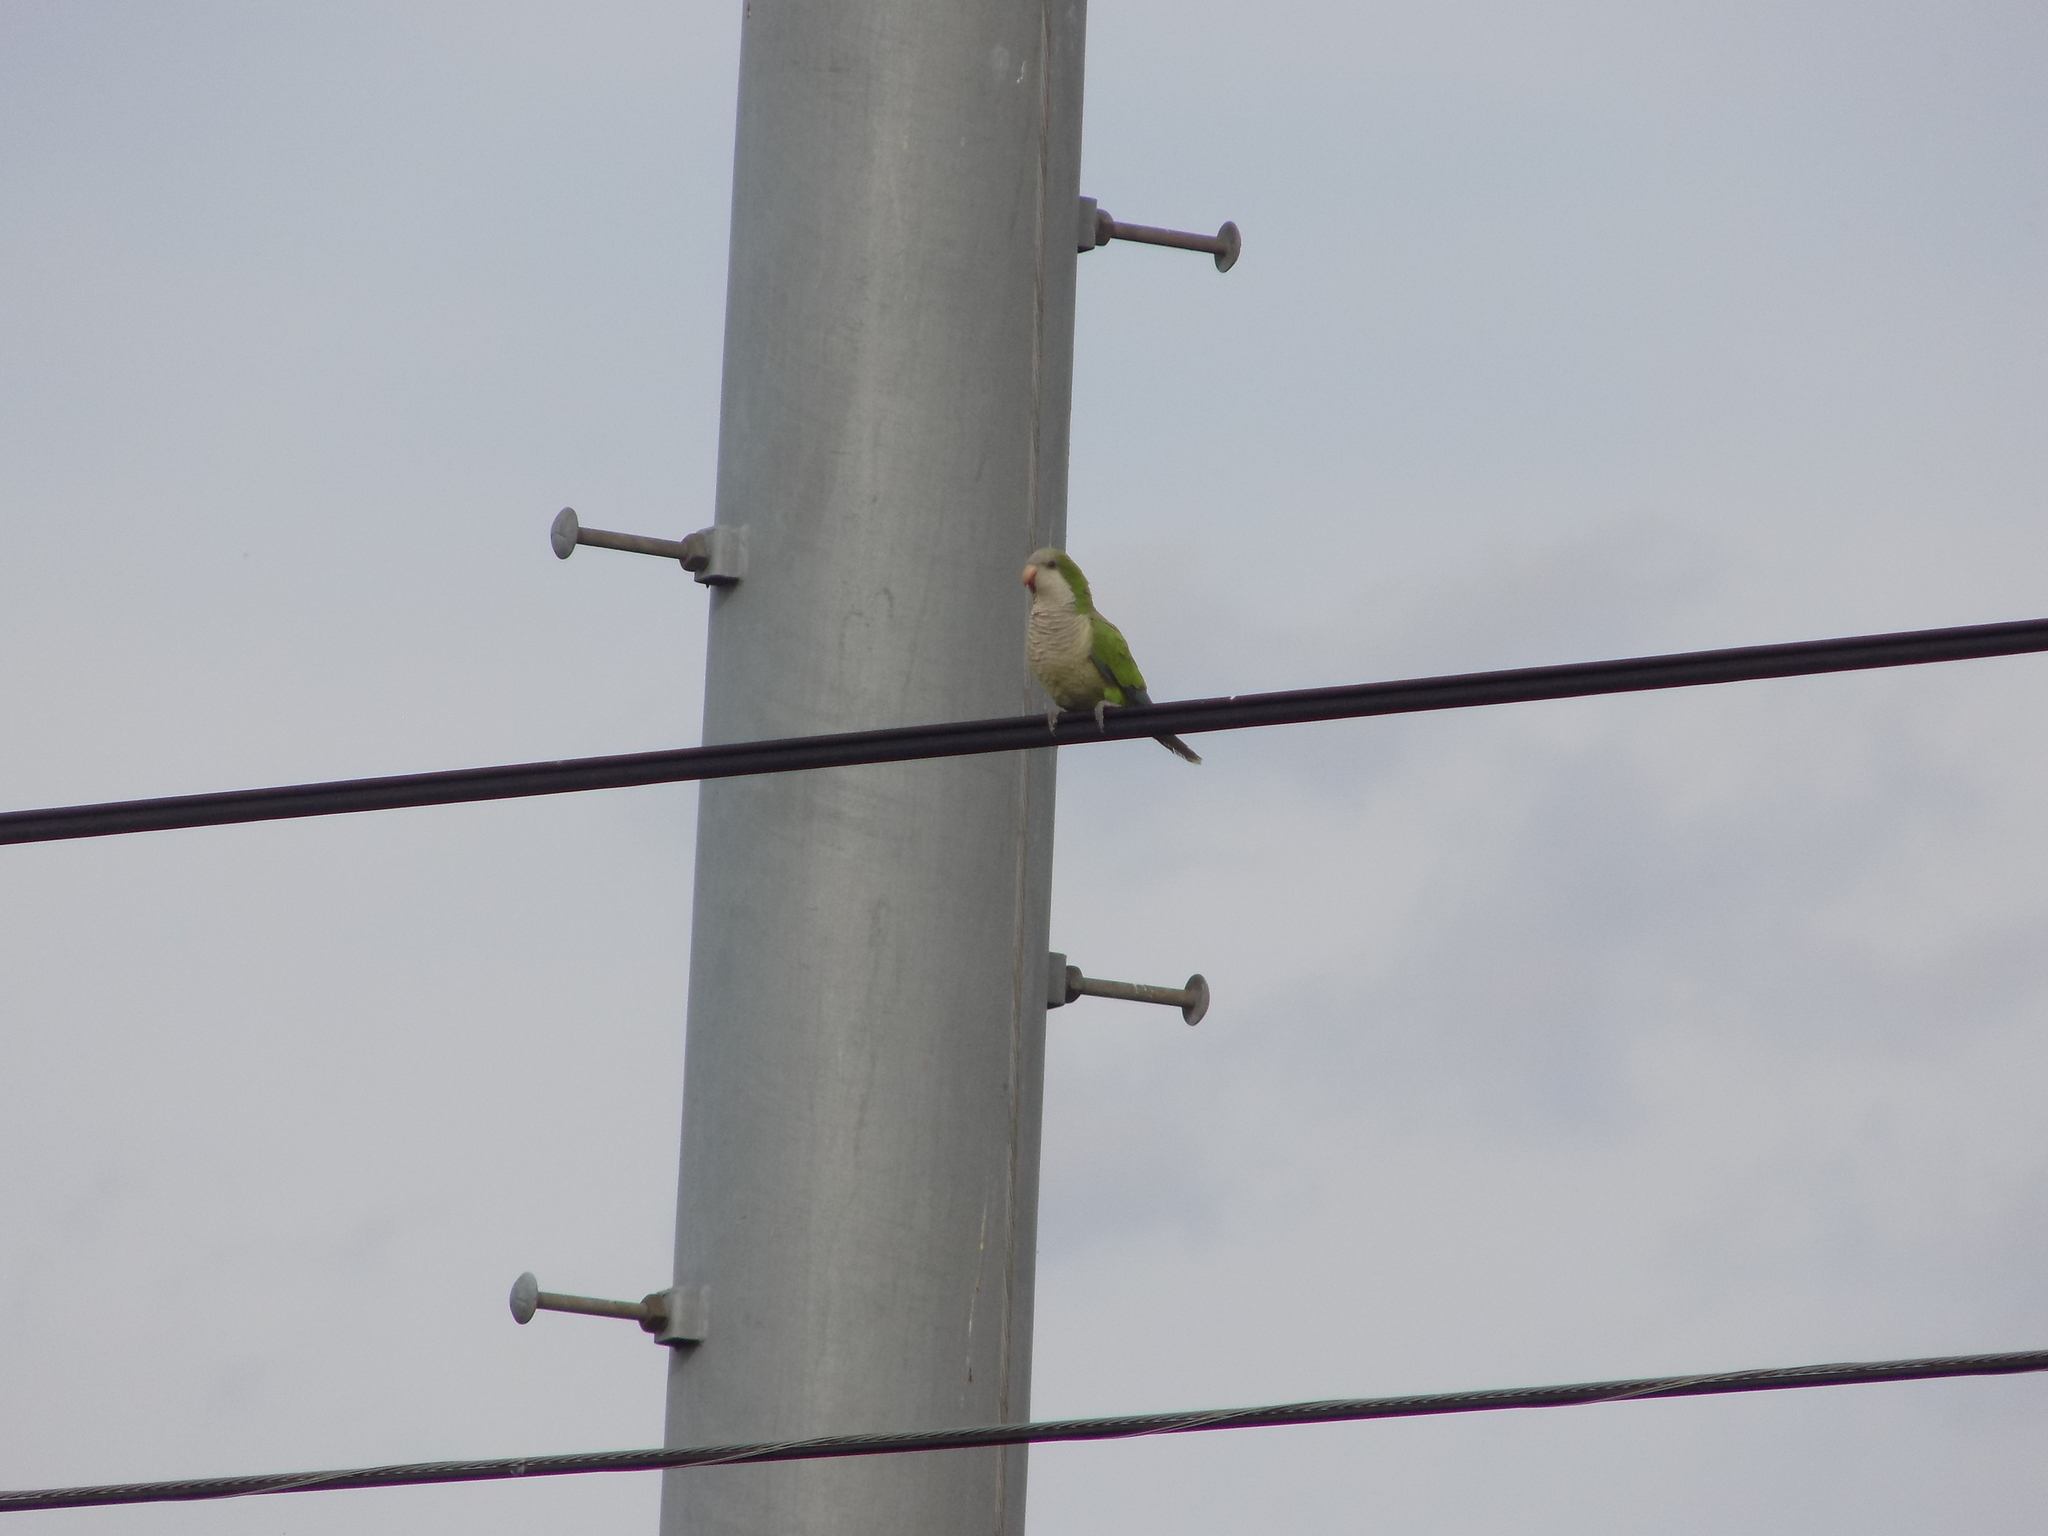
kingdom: Animalia
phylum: Chordata
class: Aves
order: Psittaciformes
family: Psittacidae
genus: Myiopsitta
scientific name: Myiopsitta monachus
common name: Monk parakeet
